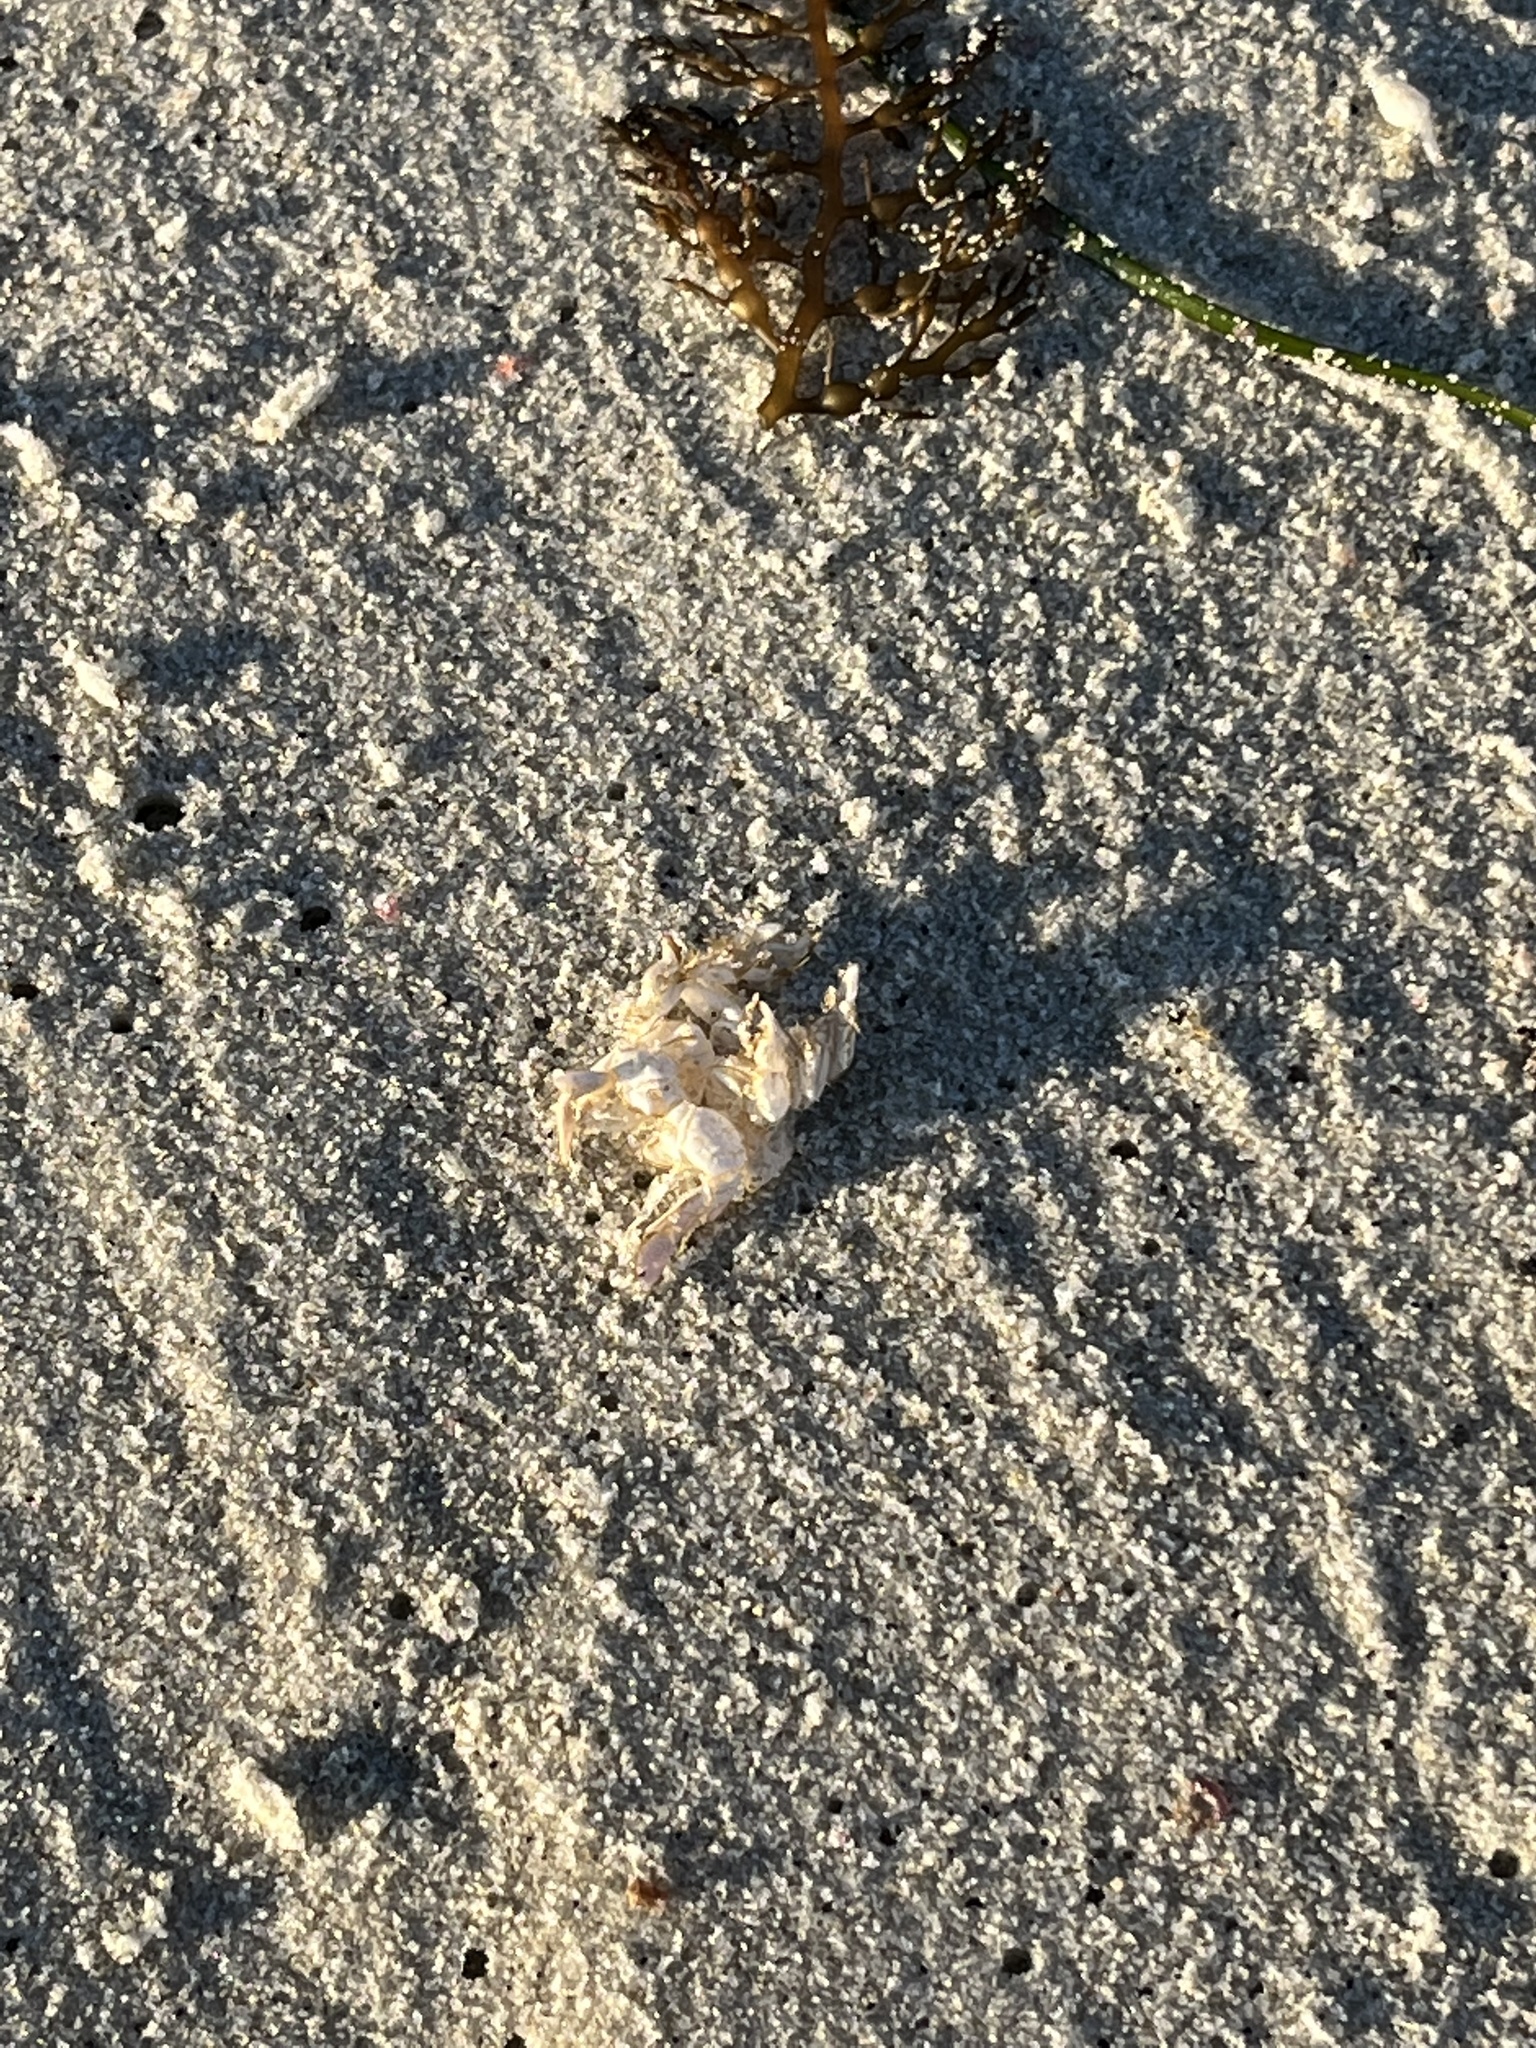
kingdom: Animalia
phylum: Arthropoda
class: Malacostraca
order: Decapoda
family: Hippidae
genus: Emerita
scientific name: Emerita analoga
